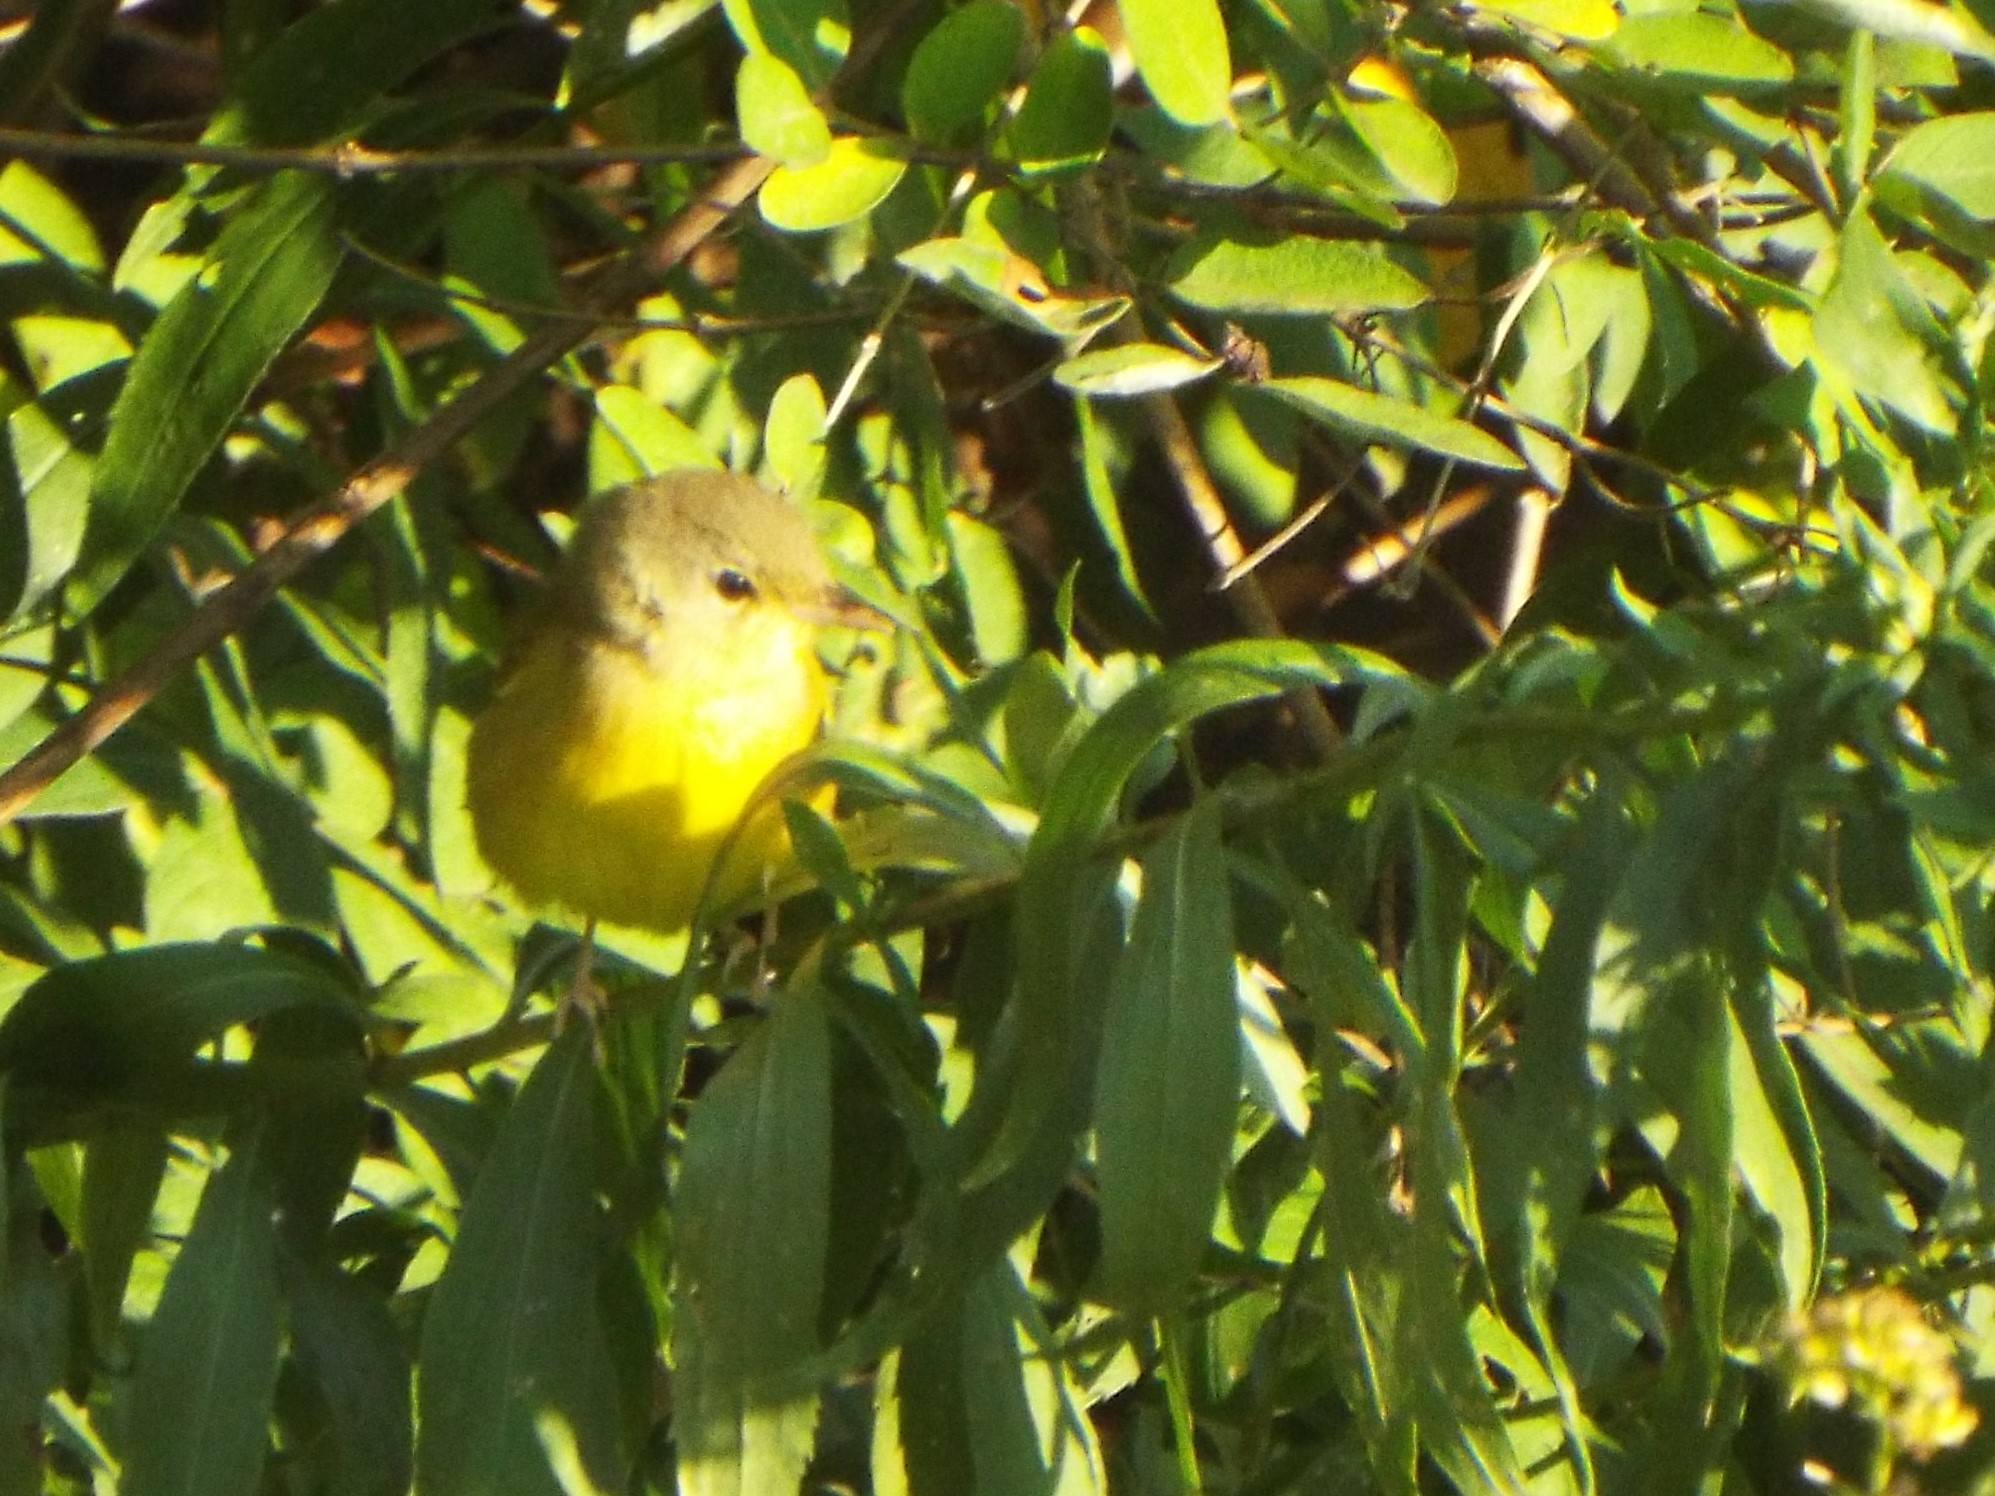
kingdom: Animalia
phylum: Chordata
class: Aves
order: Passeriformes
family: Parulidae
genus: Geothlypis
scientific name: Geothlypis philadelphia
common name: Mourning warbler
